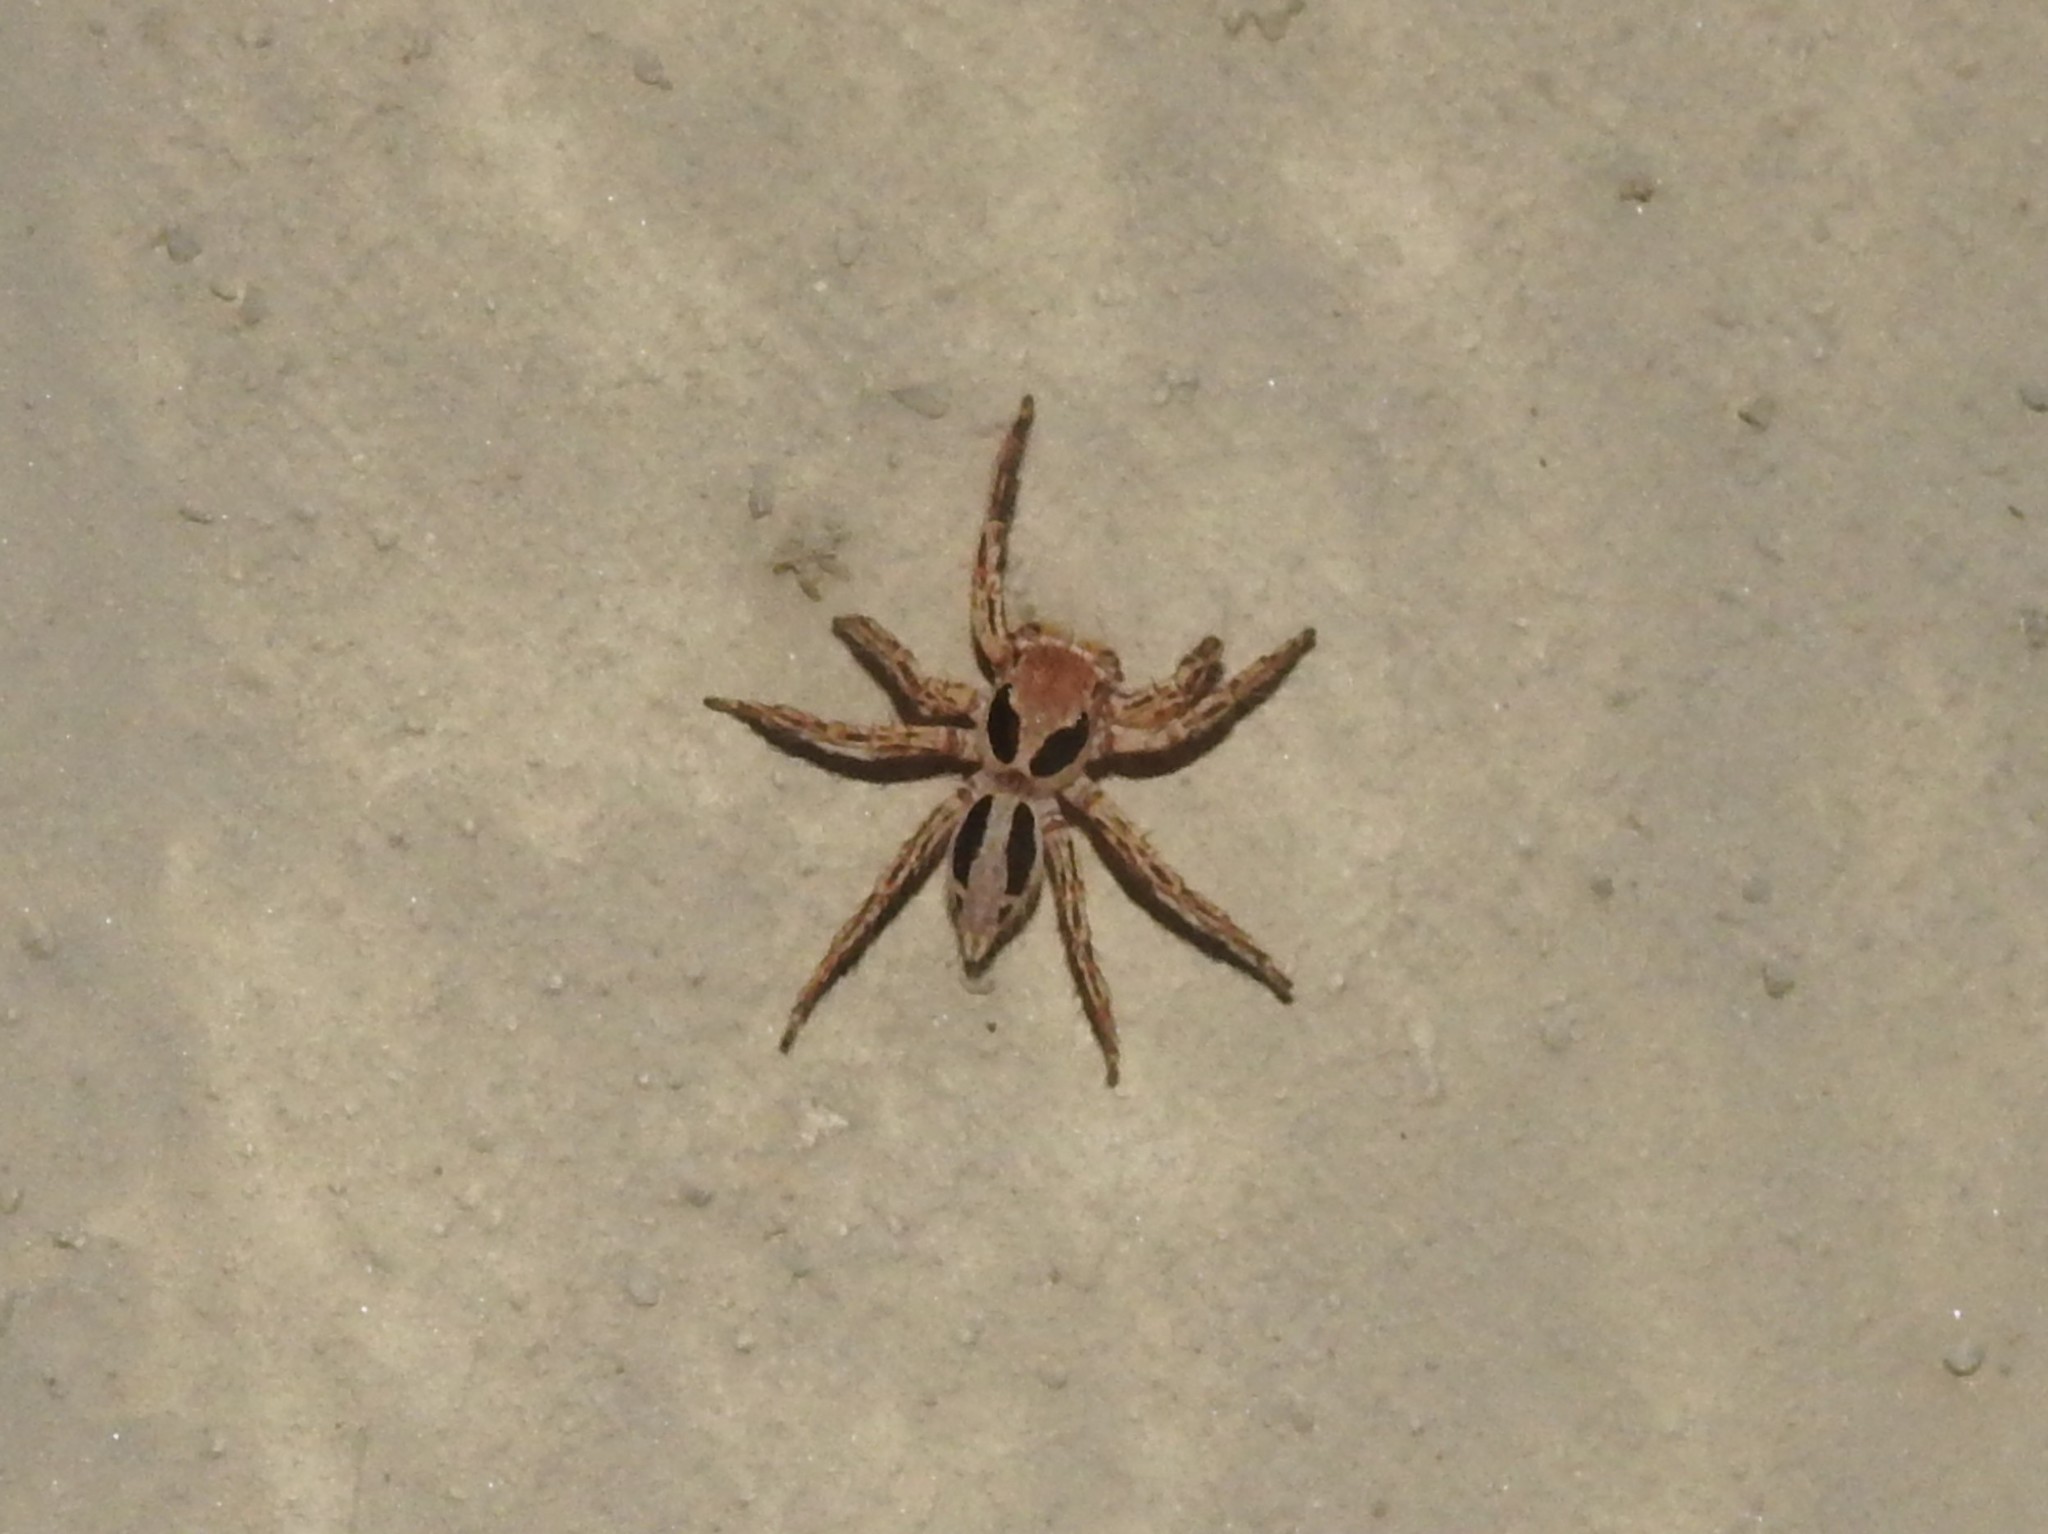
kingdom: Animalia
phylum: Arthropoda
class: Arachnida
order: Araneae
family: Salticidae
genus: Plexippus
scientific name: Plexippus petersi
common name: Jumping spider
